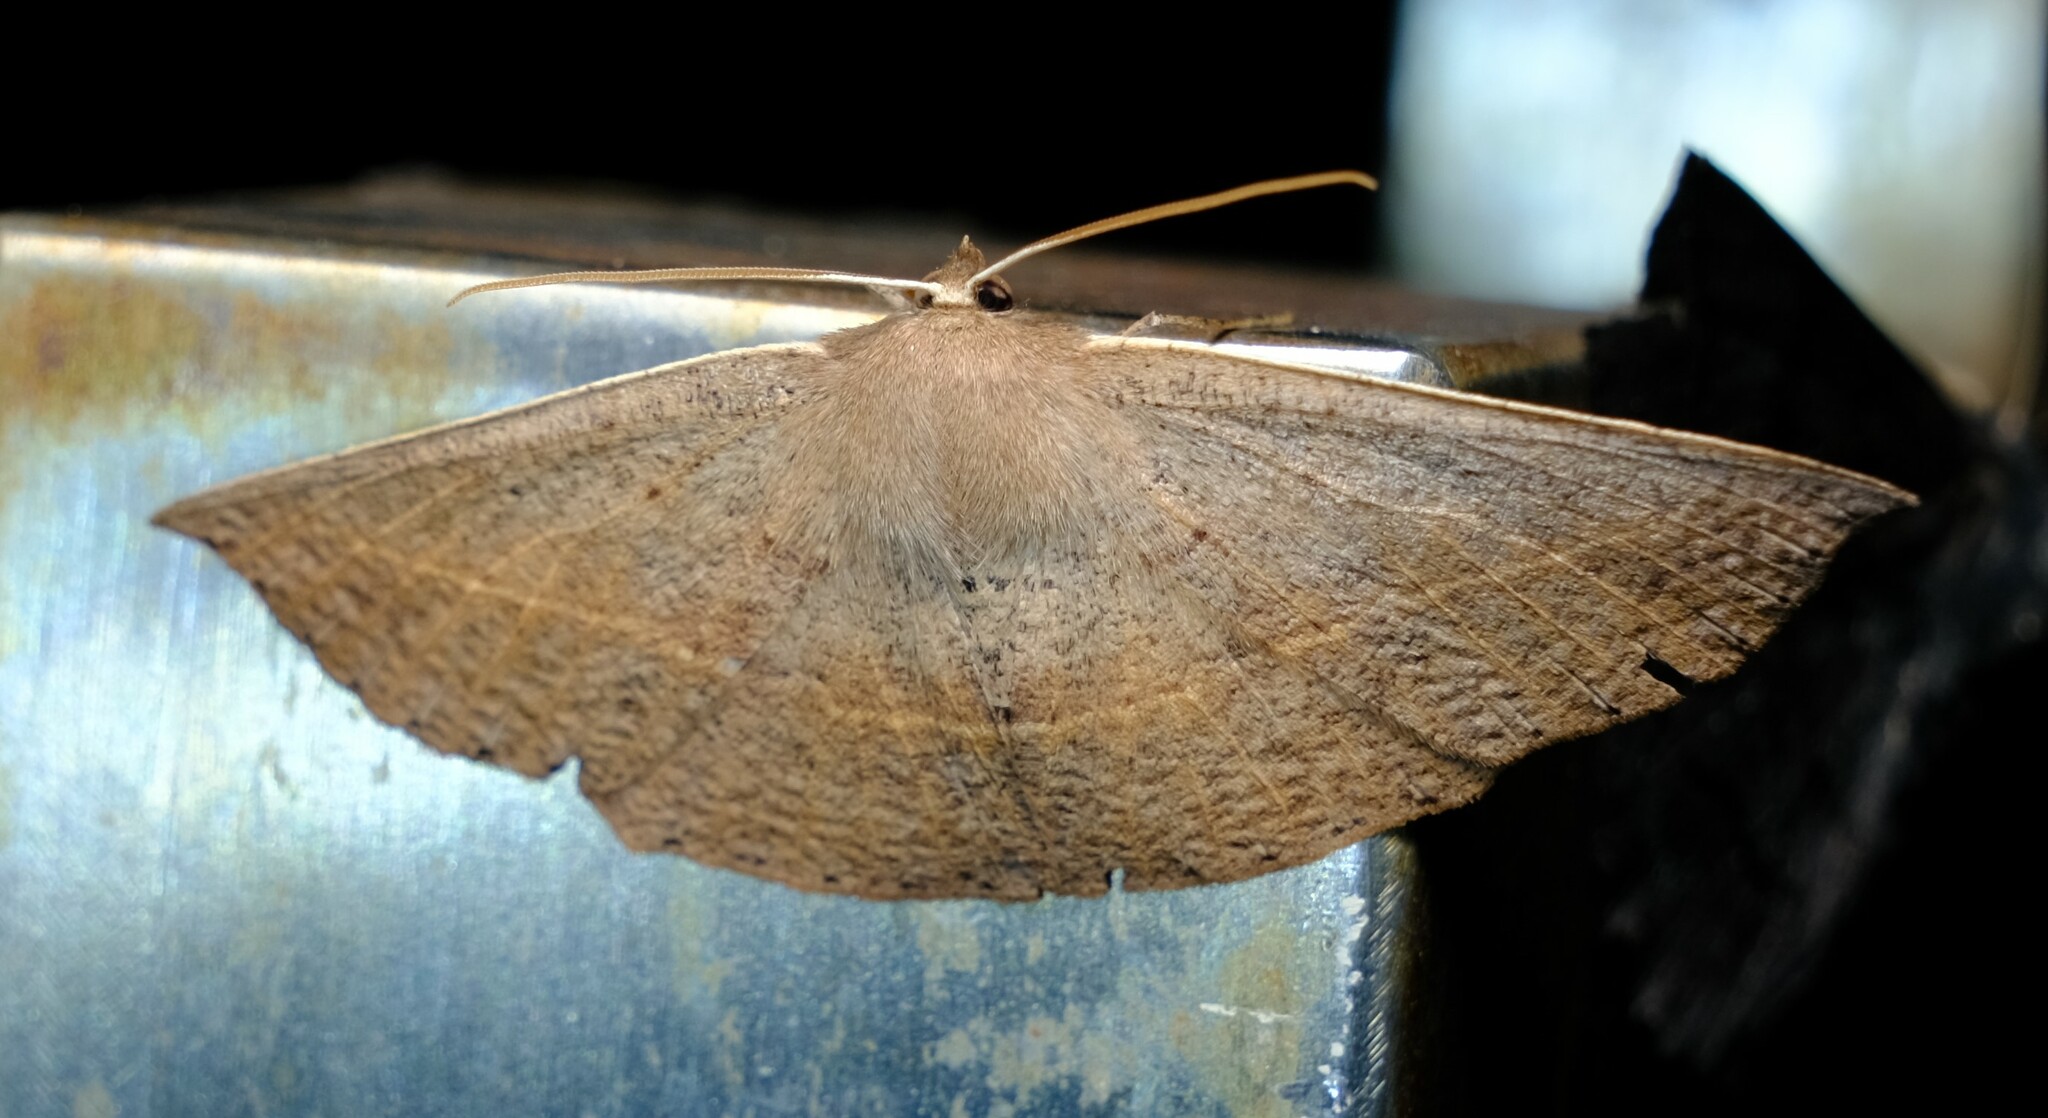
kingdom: Animalia
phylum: Arthropoda
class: Insecta
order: Lepidoptera
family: Geometridae
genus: Idiodes
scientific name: Idiodes siculoides
